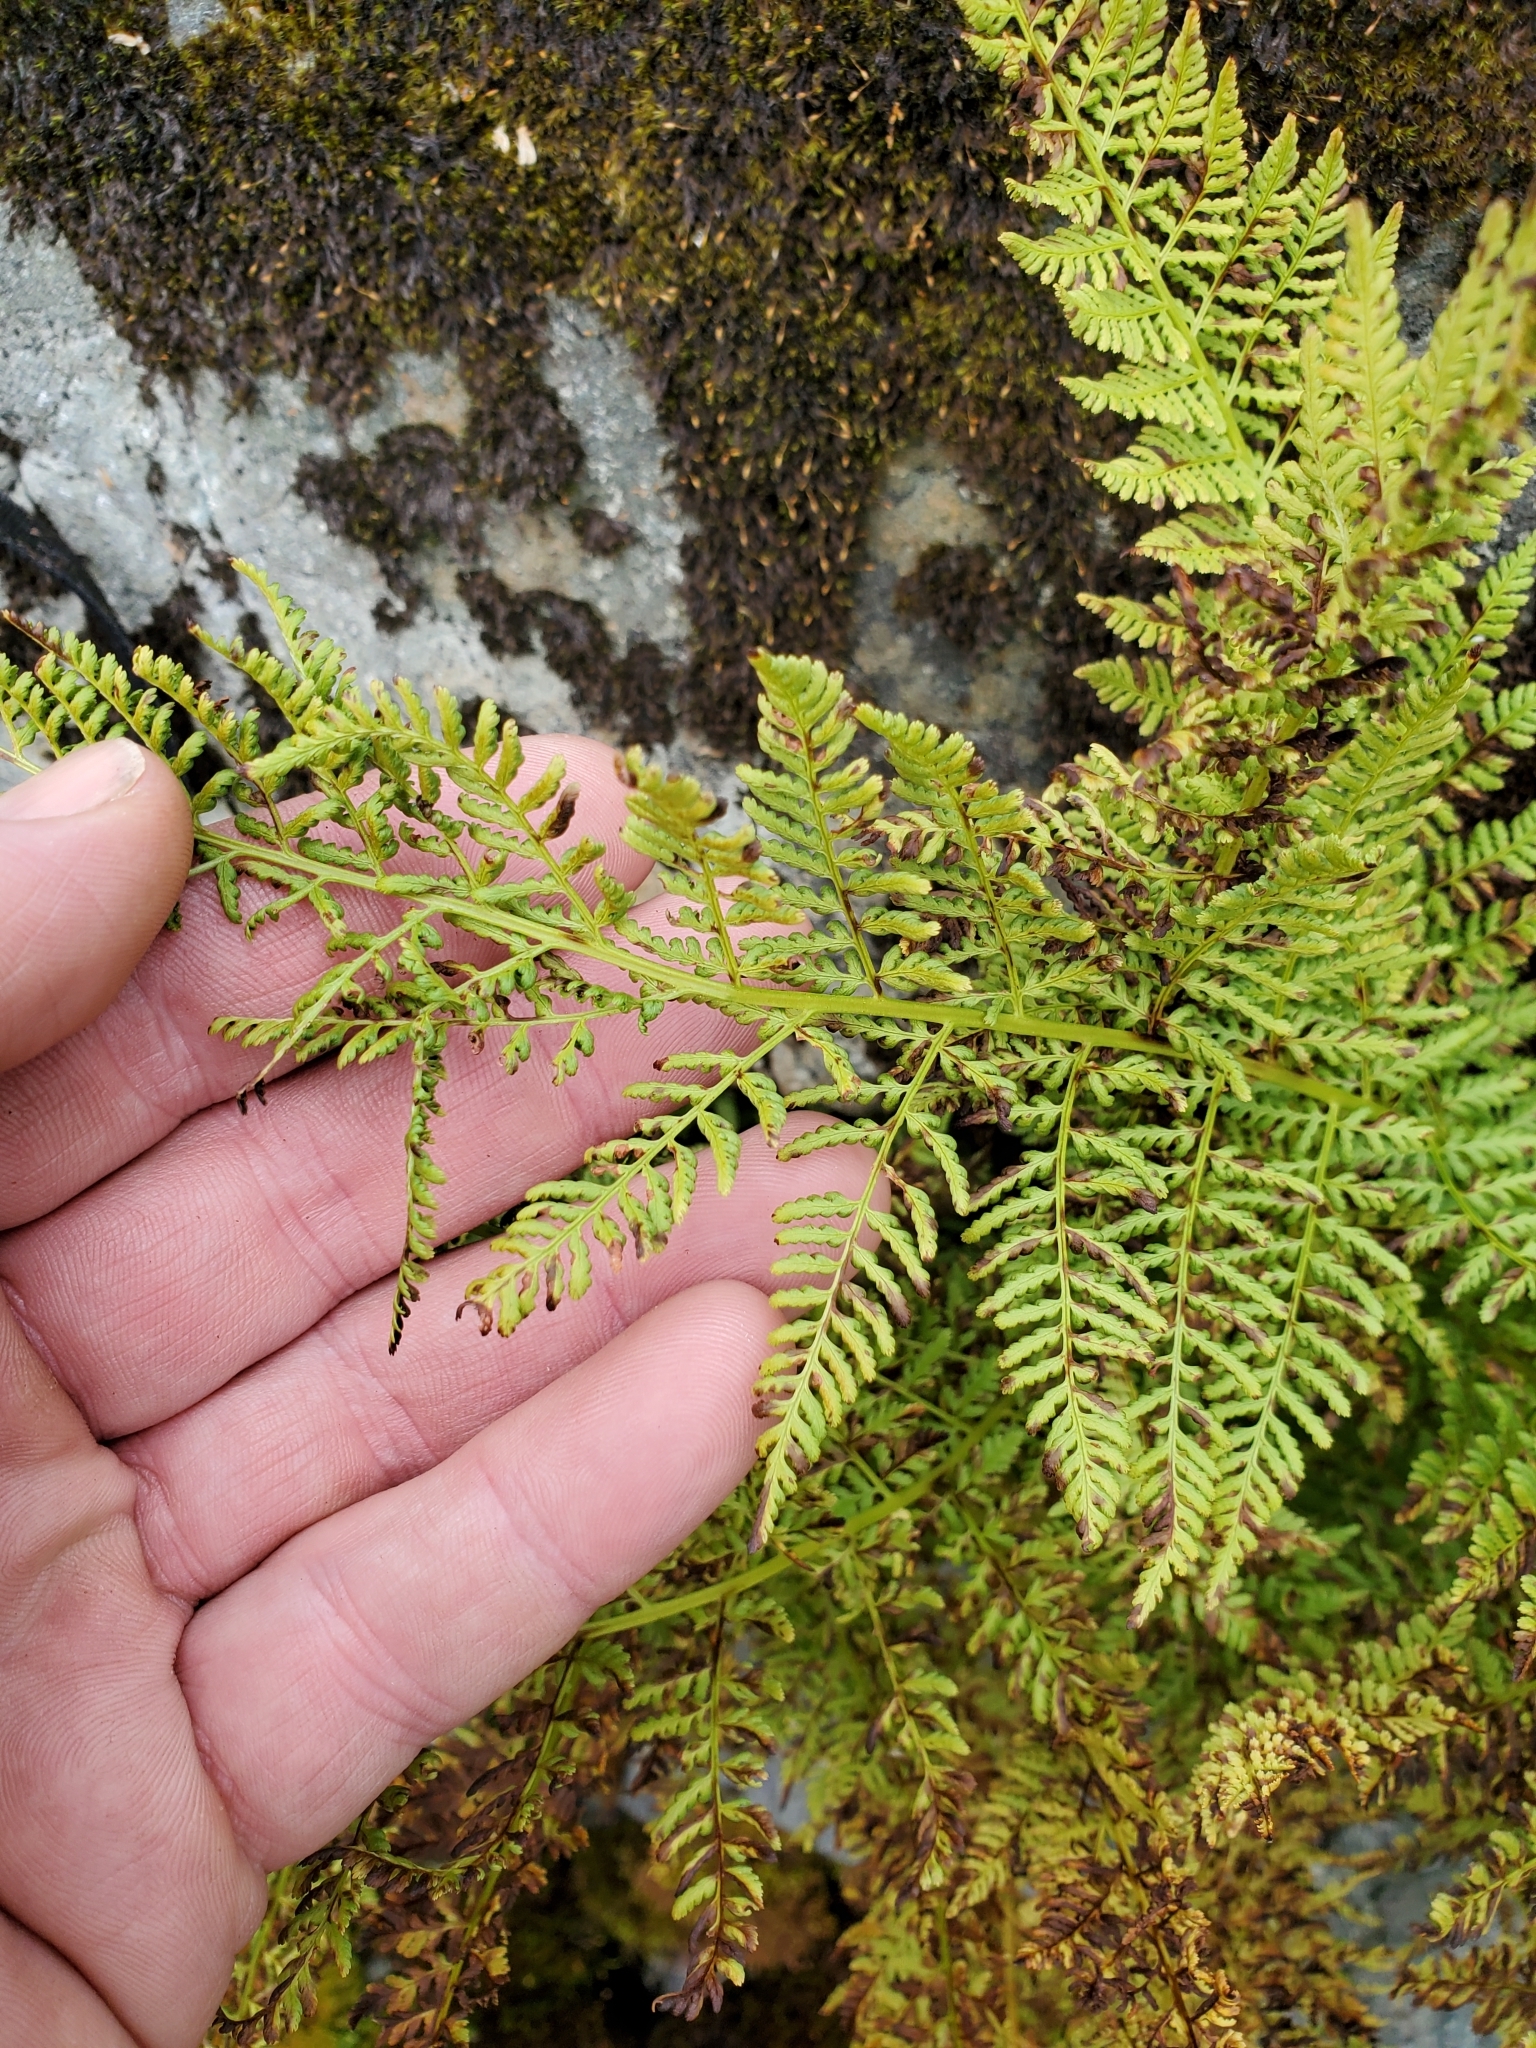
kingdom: Plantae
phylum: Tracheophyta
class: Polypodiopsida
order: Polypodiales
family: Athyriaceae
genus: Athyrium
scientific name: Athyrium americanum
